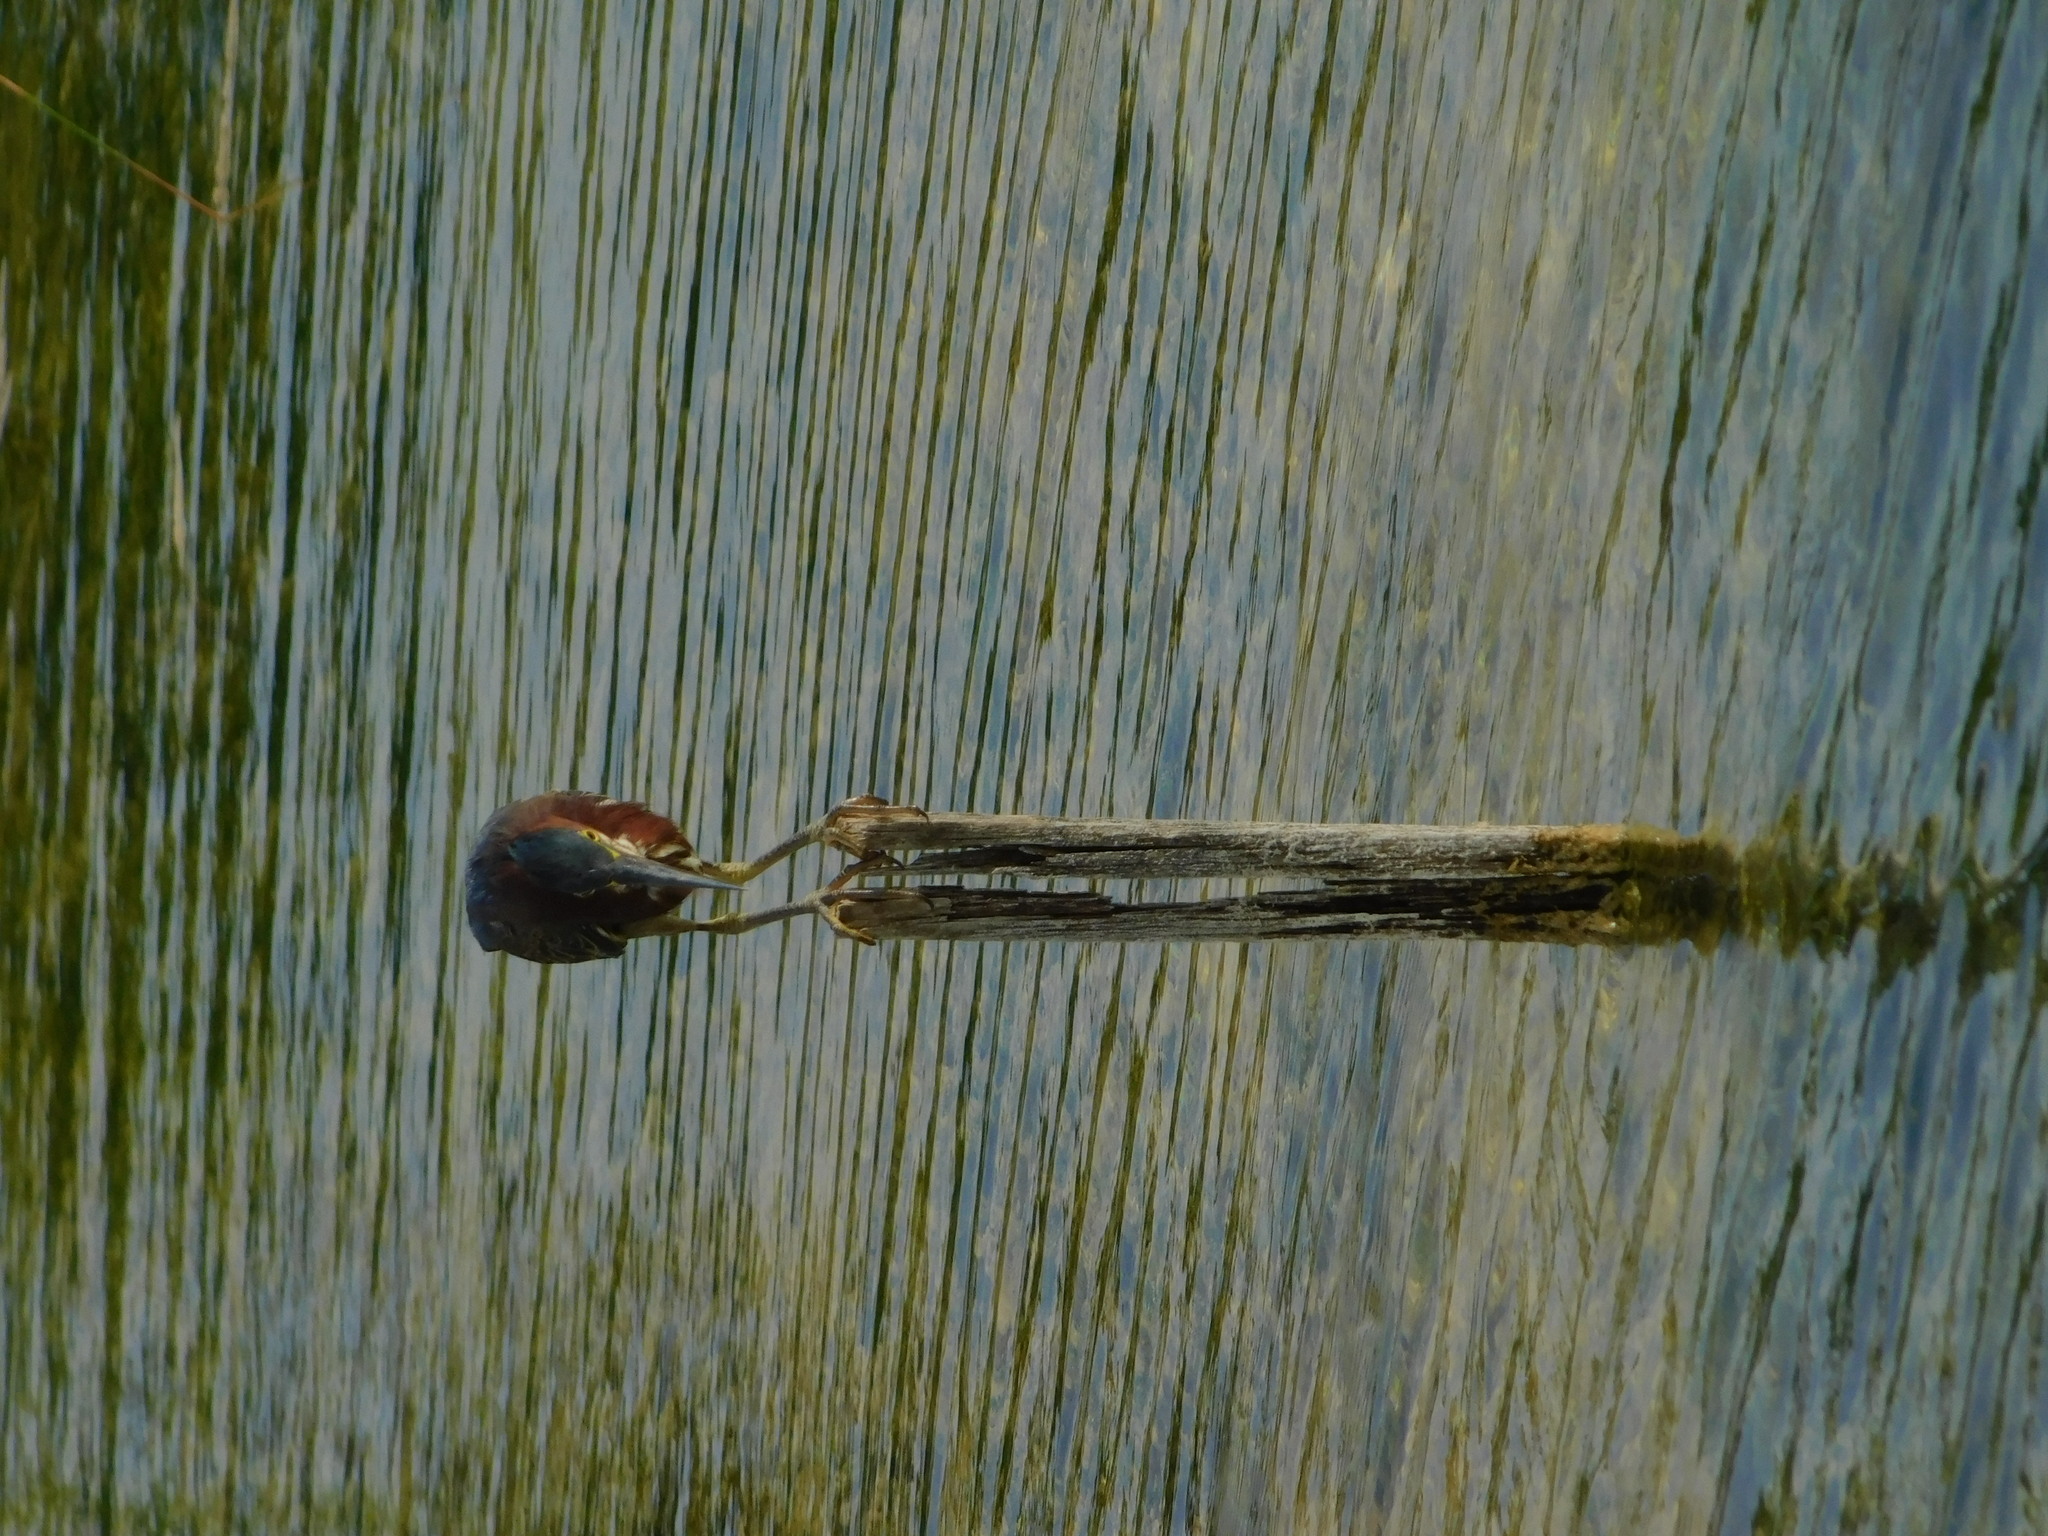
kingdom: Animalia
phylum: Chordata
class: Aves
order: Pelecaniformes
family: Ardeidae
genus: Butorides
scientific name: Butorides virescens
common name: Green heron
